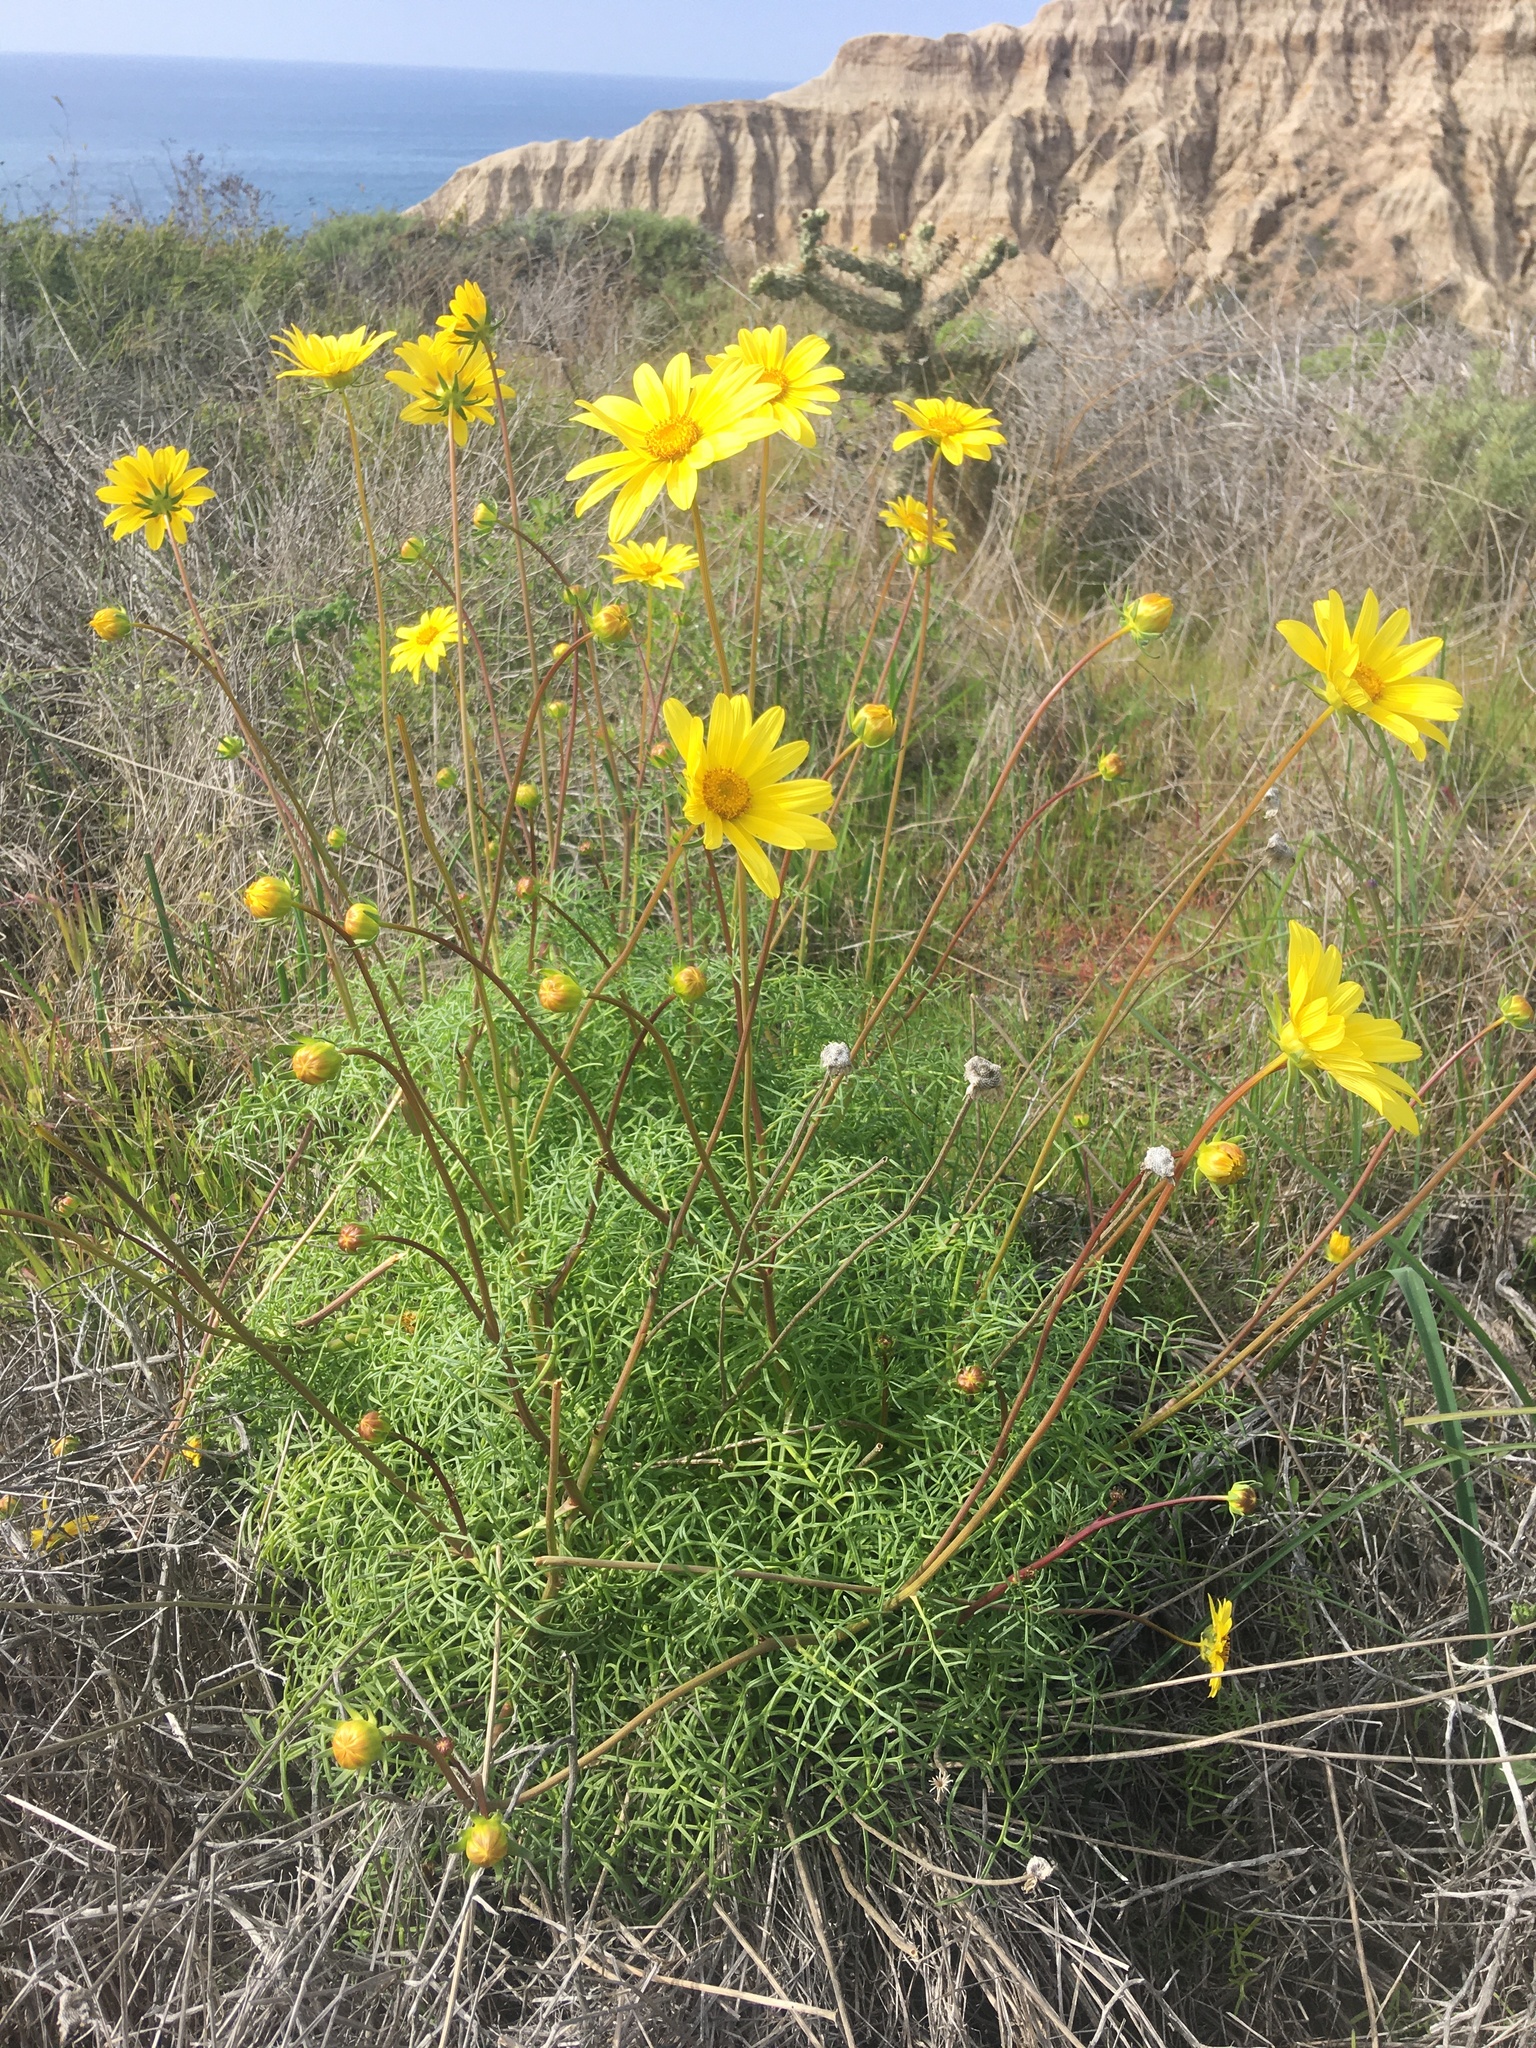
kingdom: Plantae
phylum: Tracheophyta
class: Magnoliopsida
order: Asterales
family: Asteraceae
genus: Coreopsis
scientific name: Coreopsis maritima
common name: Sea-dahlia
